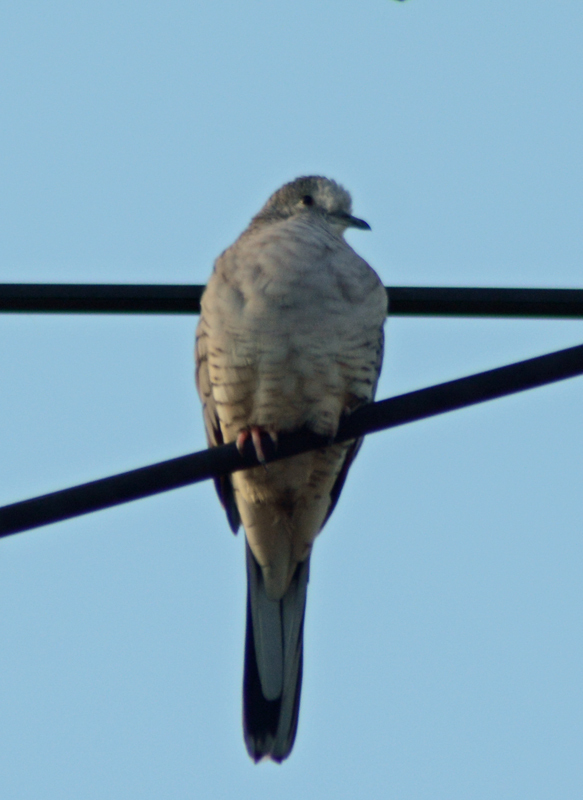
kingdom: Animalia
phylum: Chordata
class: Aves
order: Columbiformes
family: Columbidae
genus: Columbina
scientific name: Columbina inca
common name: Inca dove
